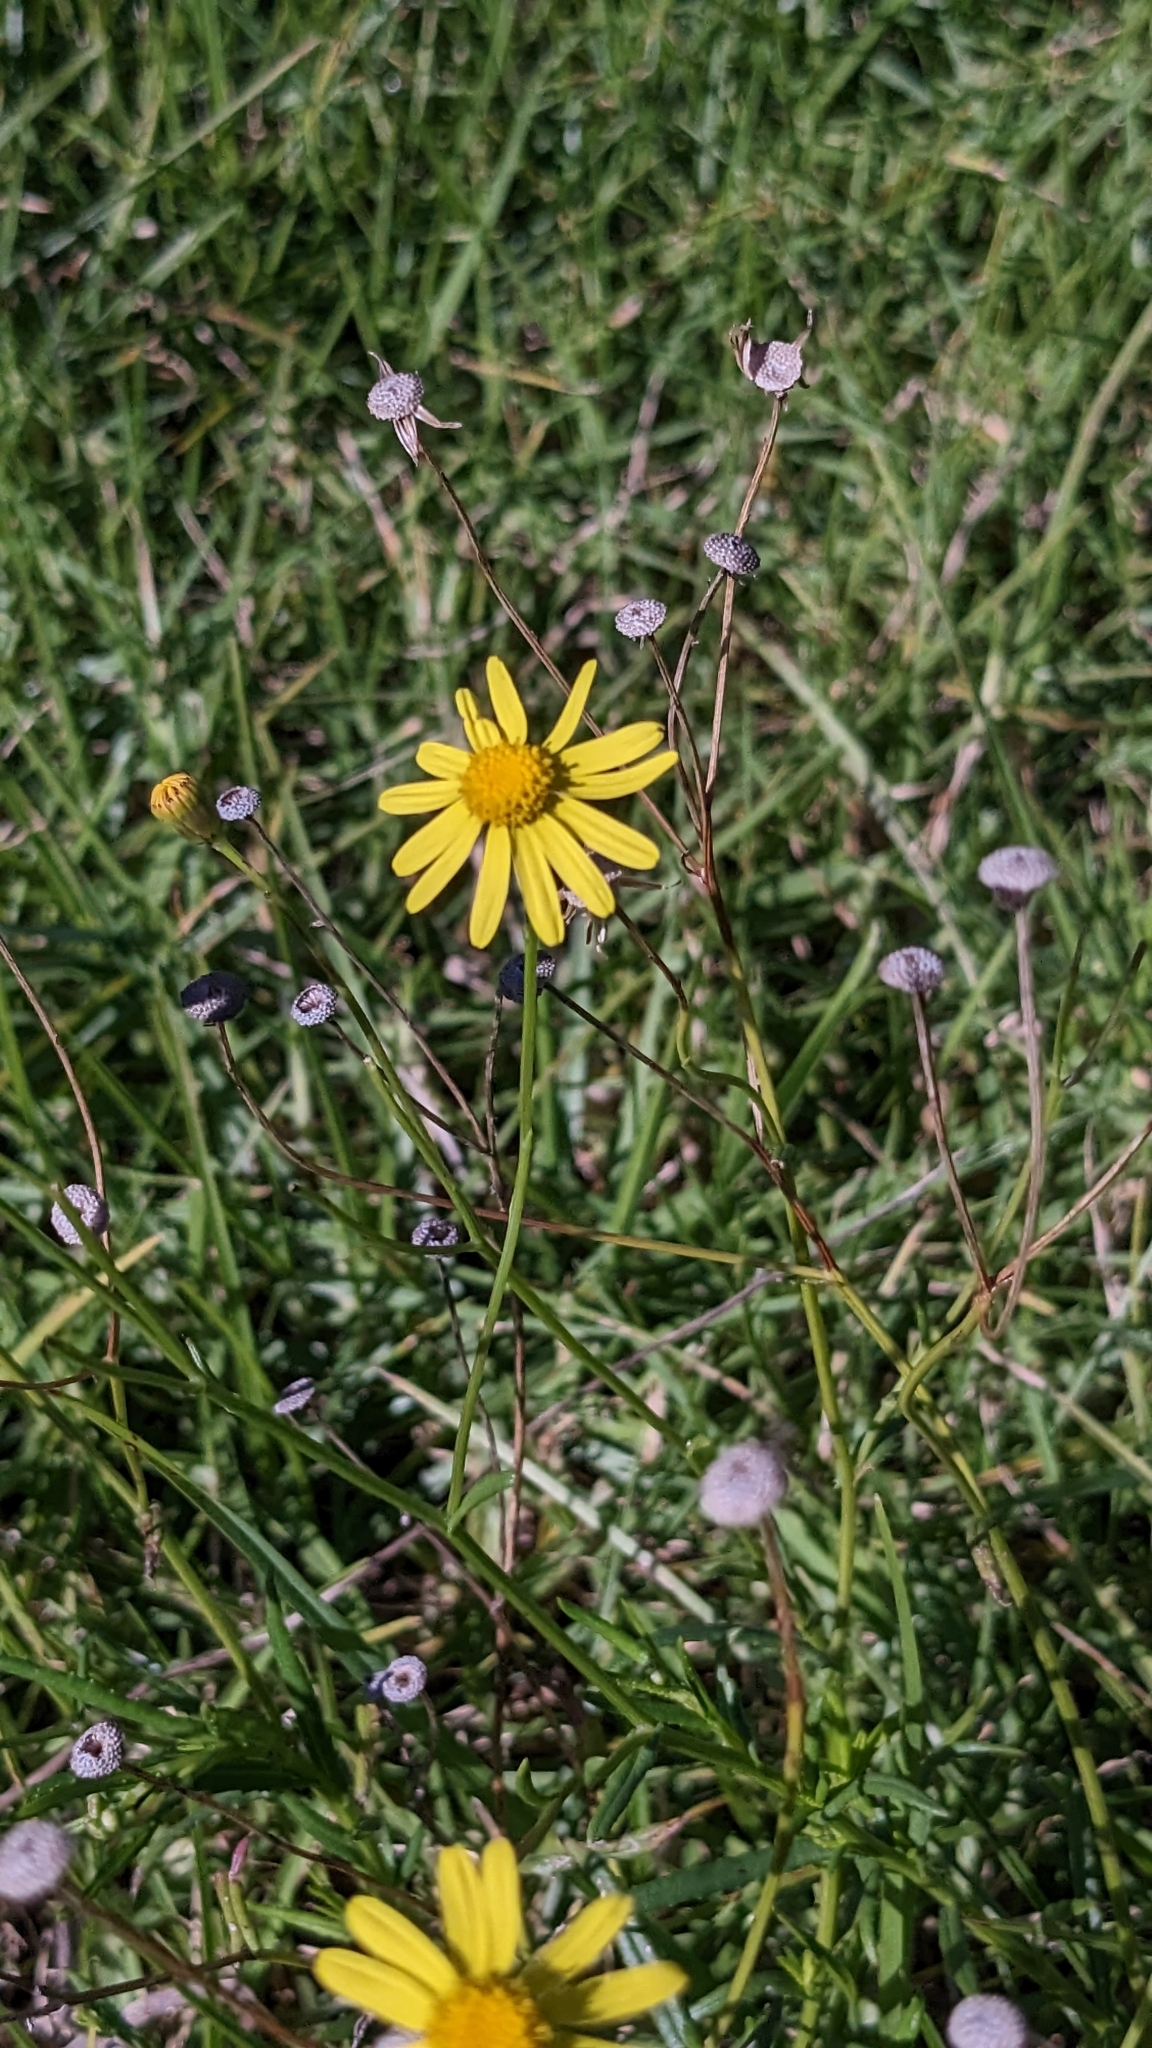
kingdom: Plantae
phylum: Tracheophyta
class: Magnoliopsida
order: Asterales
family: Asteraceae
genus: Senecio
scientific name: Senecio madagascariensis
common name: Madagascar ragwort
